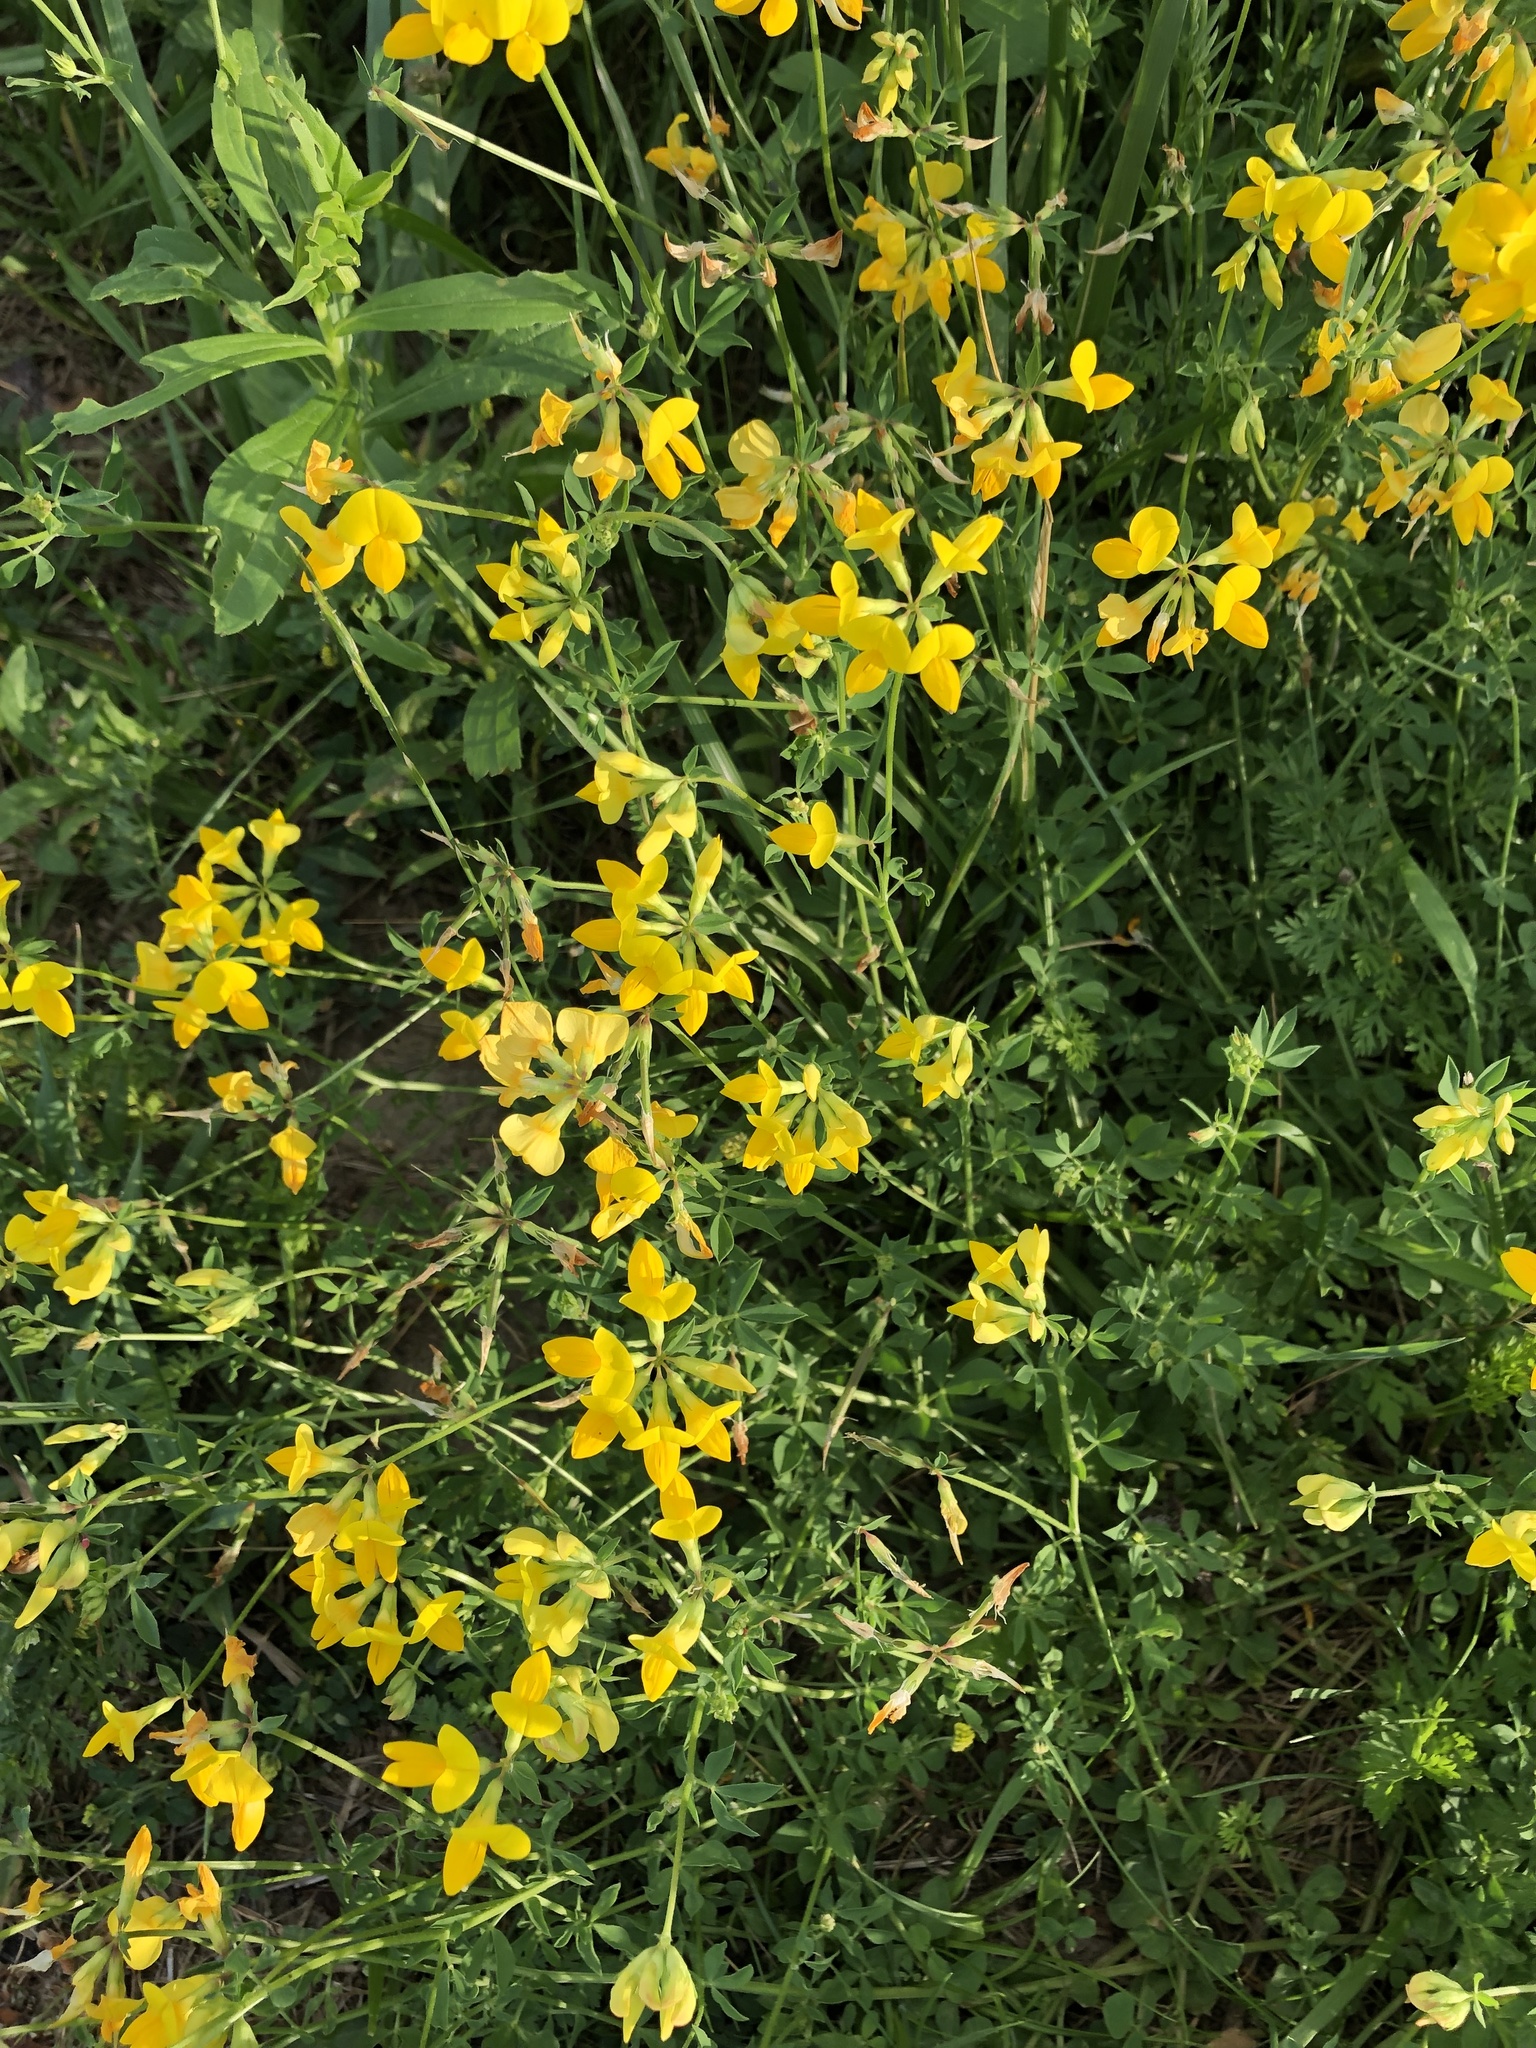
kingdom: Plantae
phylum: Tracheophyta
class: Magnoliopsida
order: Fabales
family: Fabaceae
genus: Lotus
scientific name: Lotus corniculatus
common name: Common bird's-foot-trefoil
